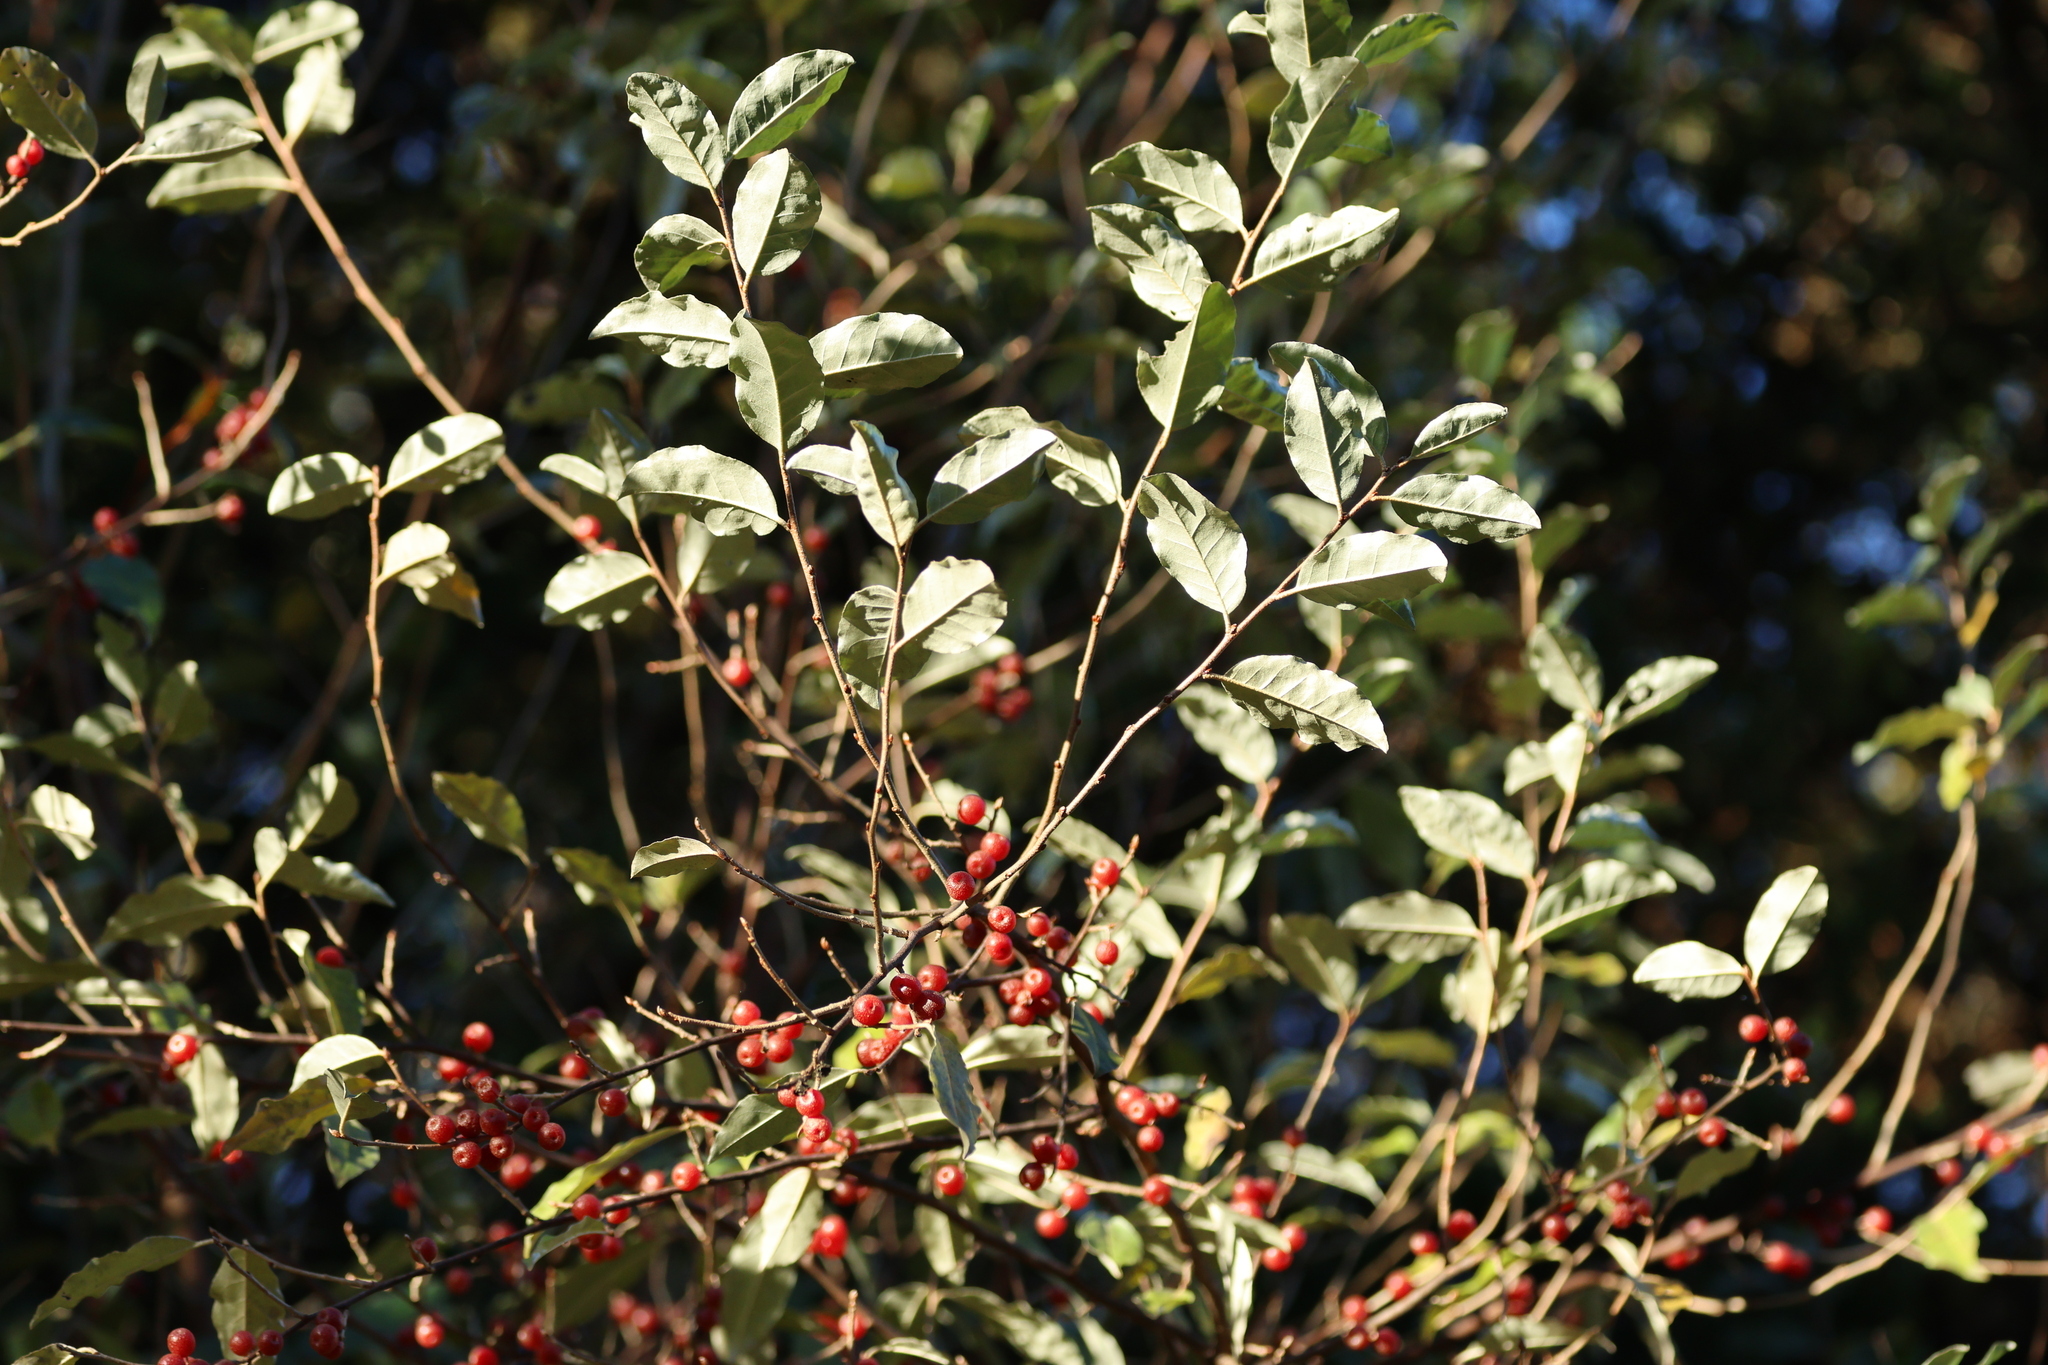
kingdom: Plantae
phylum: Tracheophyta
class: Magnoliopsida
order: Rosales
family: Elaeagnaceae
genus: Elaeagnus
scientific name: Elaeagnus umbellata
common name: Autumn olive
